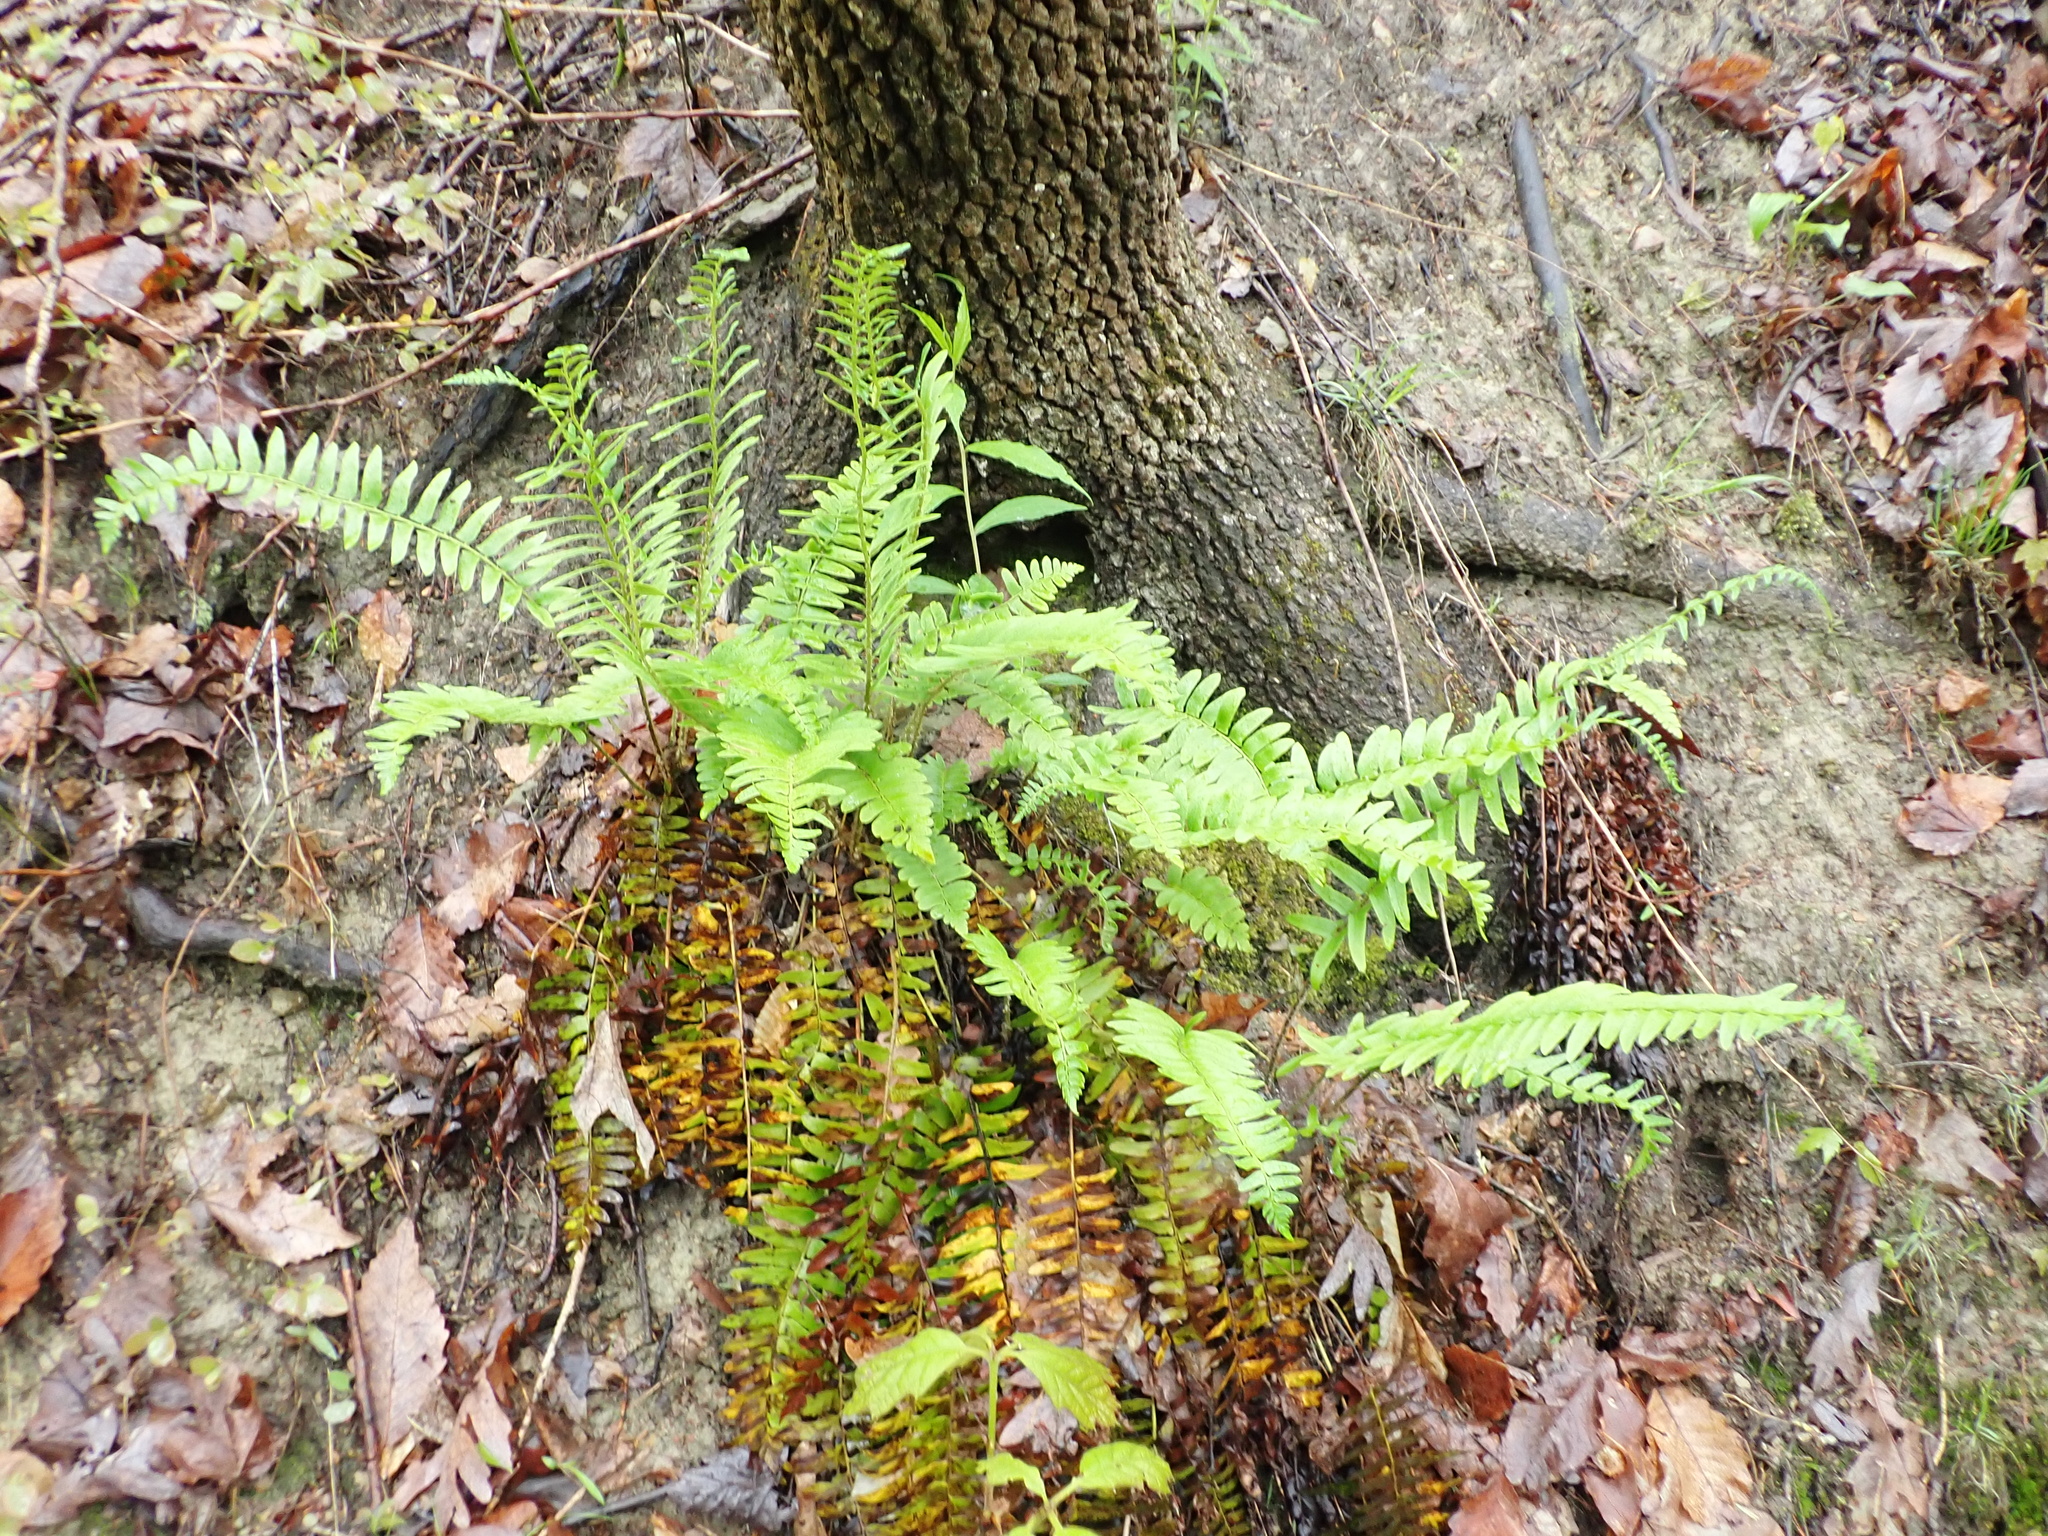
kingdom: Plantae
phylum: Tracheophyta
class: Polypodiopsida
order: Polypodiales
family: Dryopteridaceae
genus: Polystichum
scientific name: Polystichum acrostichoides
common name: Christmas fern
